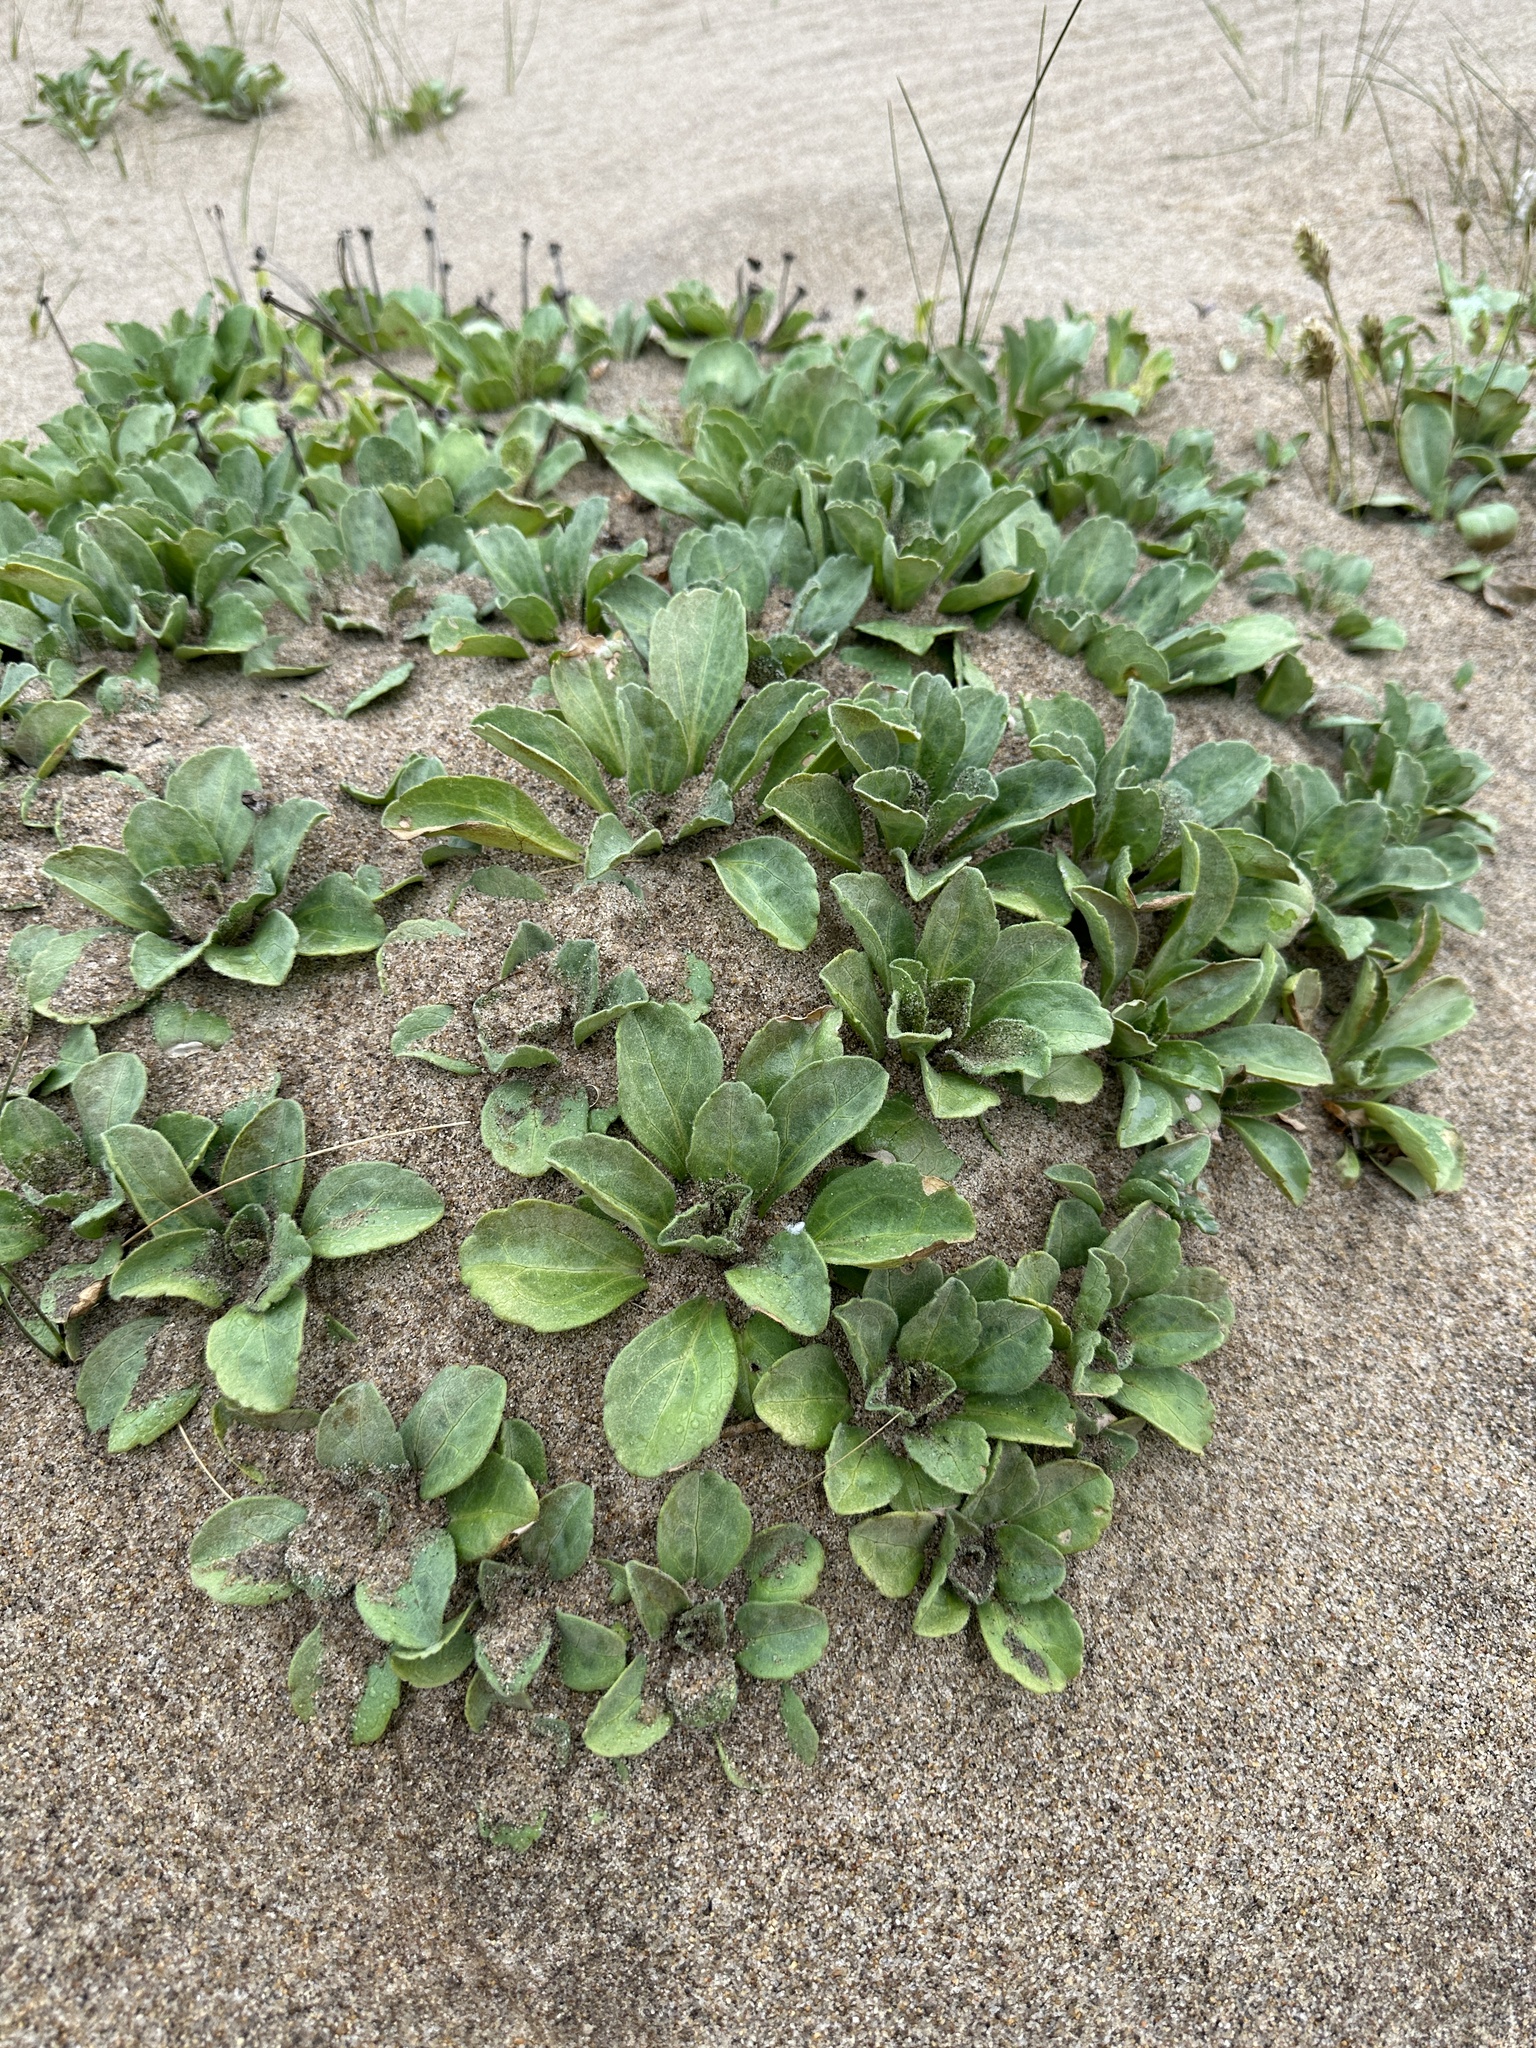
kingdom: Plantae
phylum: Tracheophyta
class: Magnoliopsida
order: Asterales
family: Asteraceae
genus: Erigeron
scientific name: Erigeron glaucus
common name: Seaside daisy
